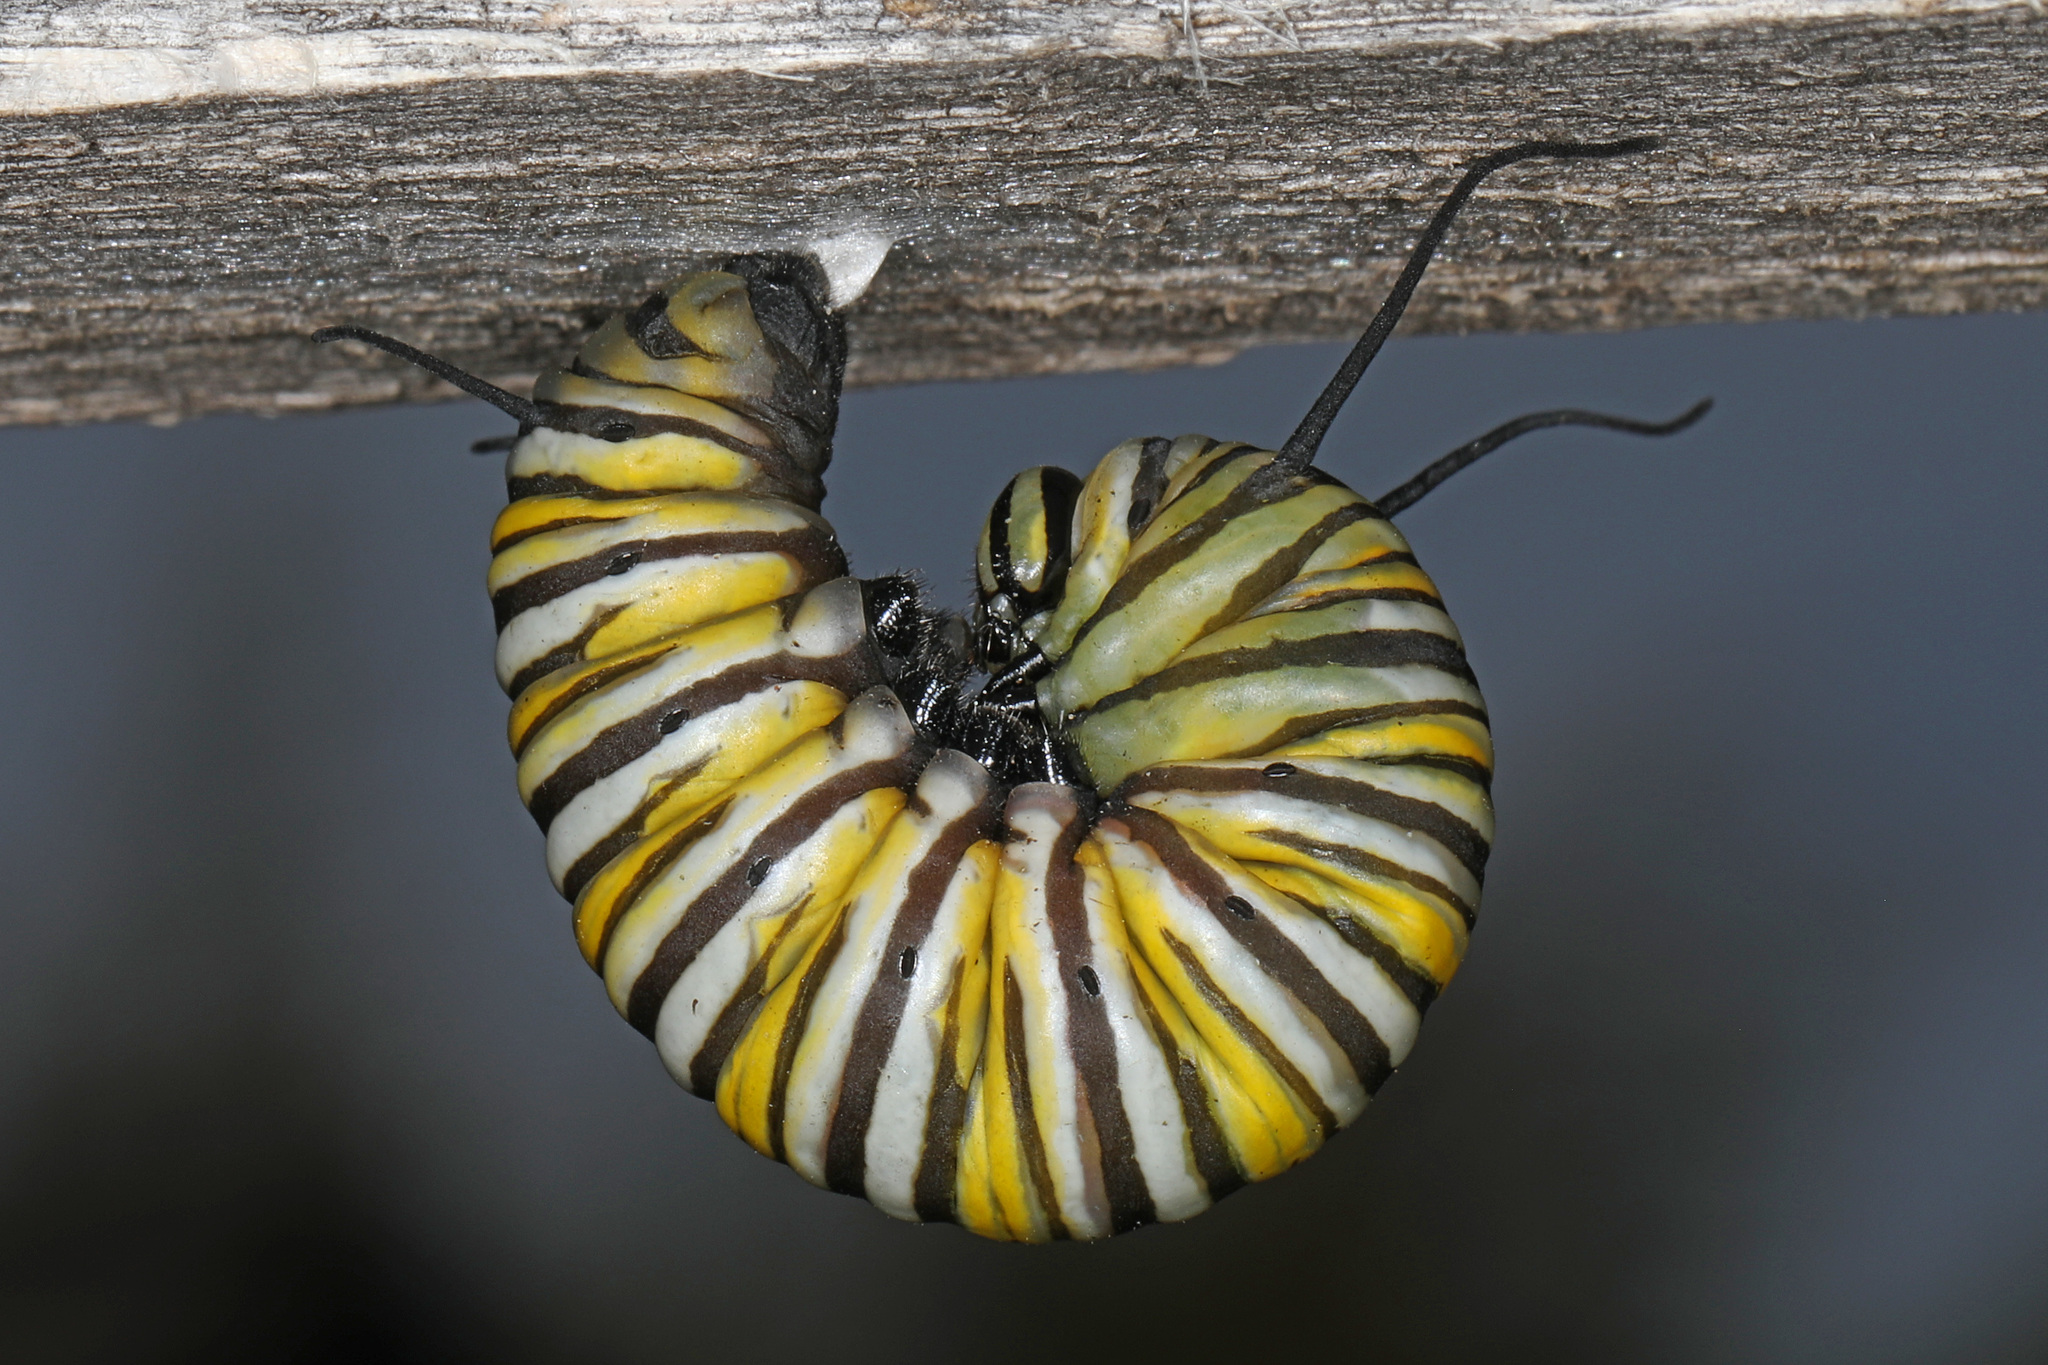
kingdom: Animalia
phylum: Arthropoda
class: Insecta
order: Lepidoptera
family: Nymphalidae
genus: Danaus
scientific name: Danaus plexippus
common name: Monarch
